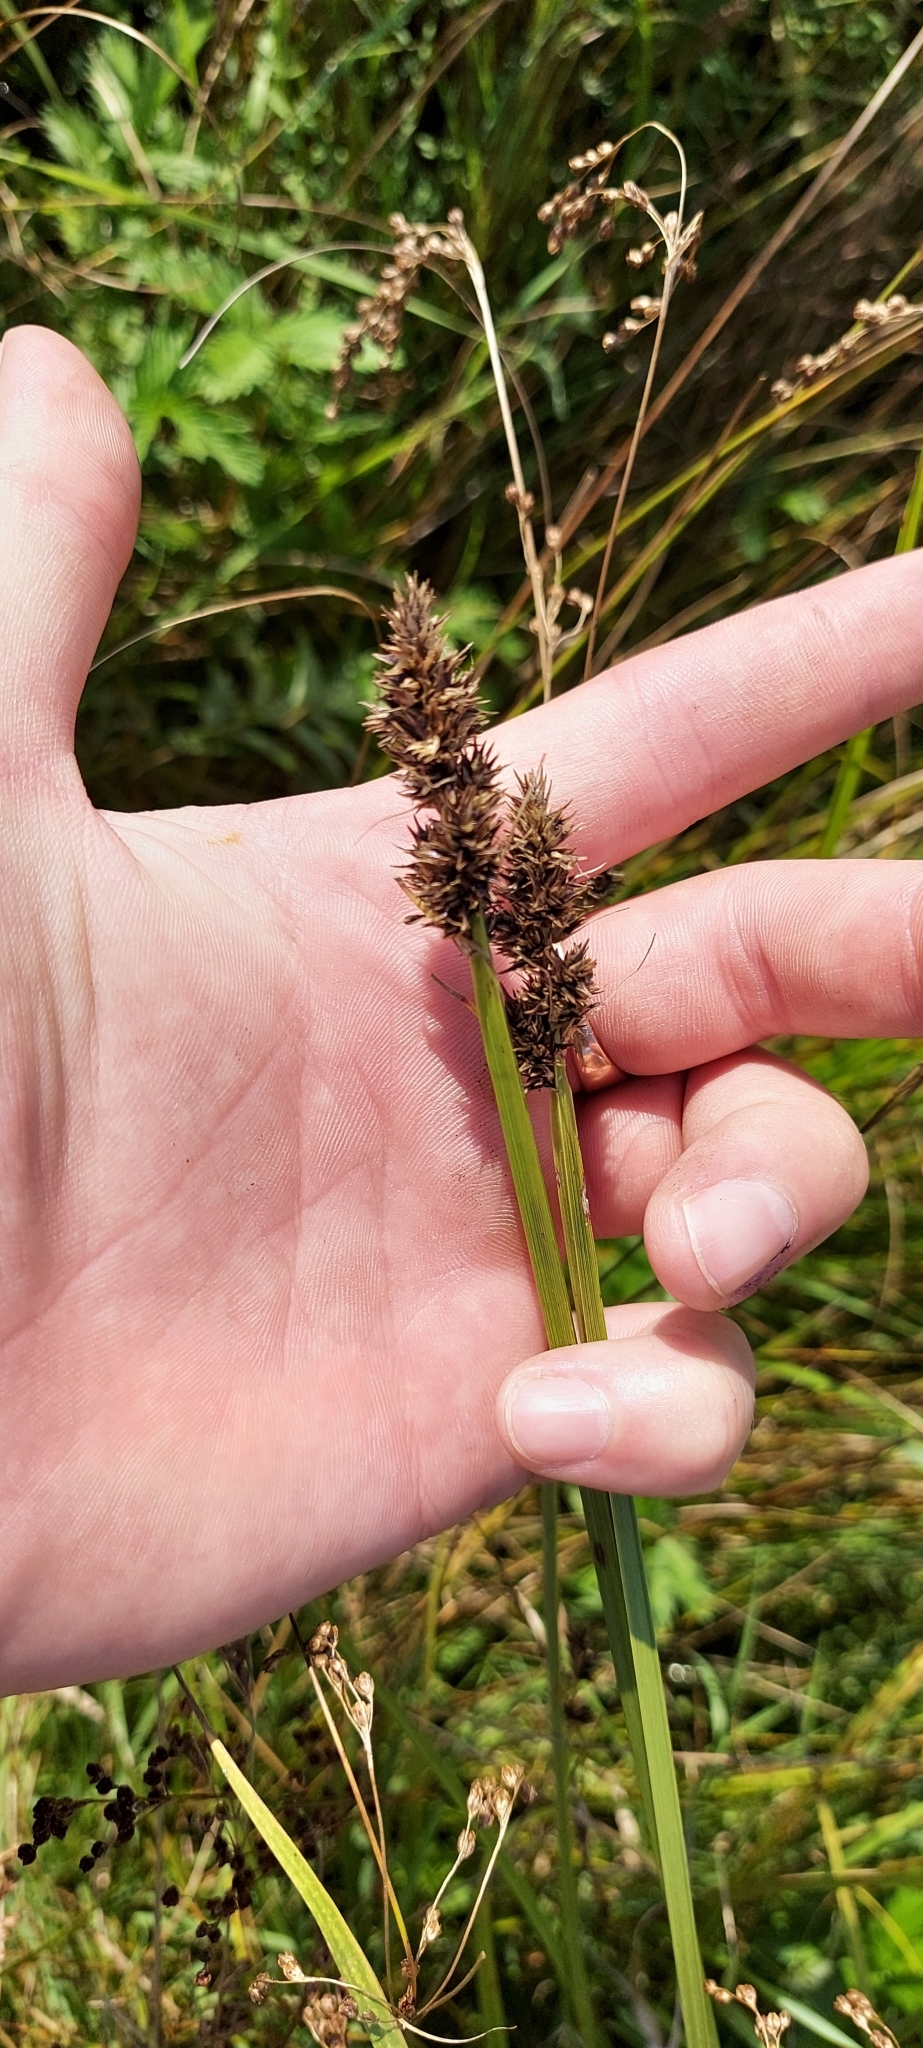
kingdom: Plantae
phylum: Tracheophyta
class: Liliopsida
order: Poales
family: Cyperaceae
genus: Carex
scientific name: Carex vulpina
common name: True fox-sedge
